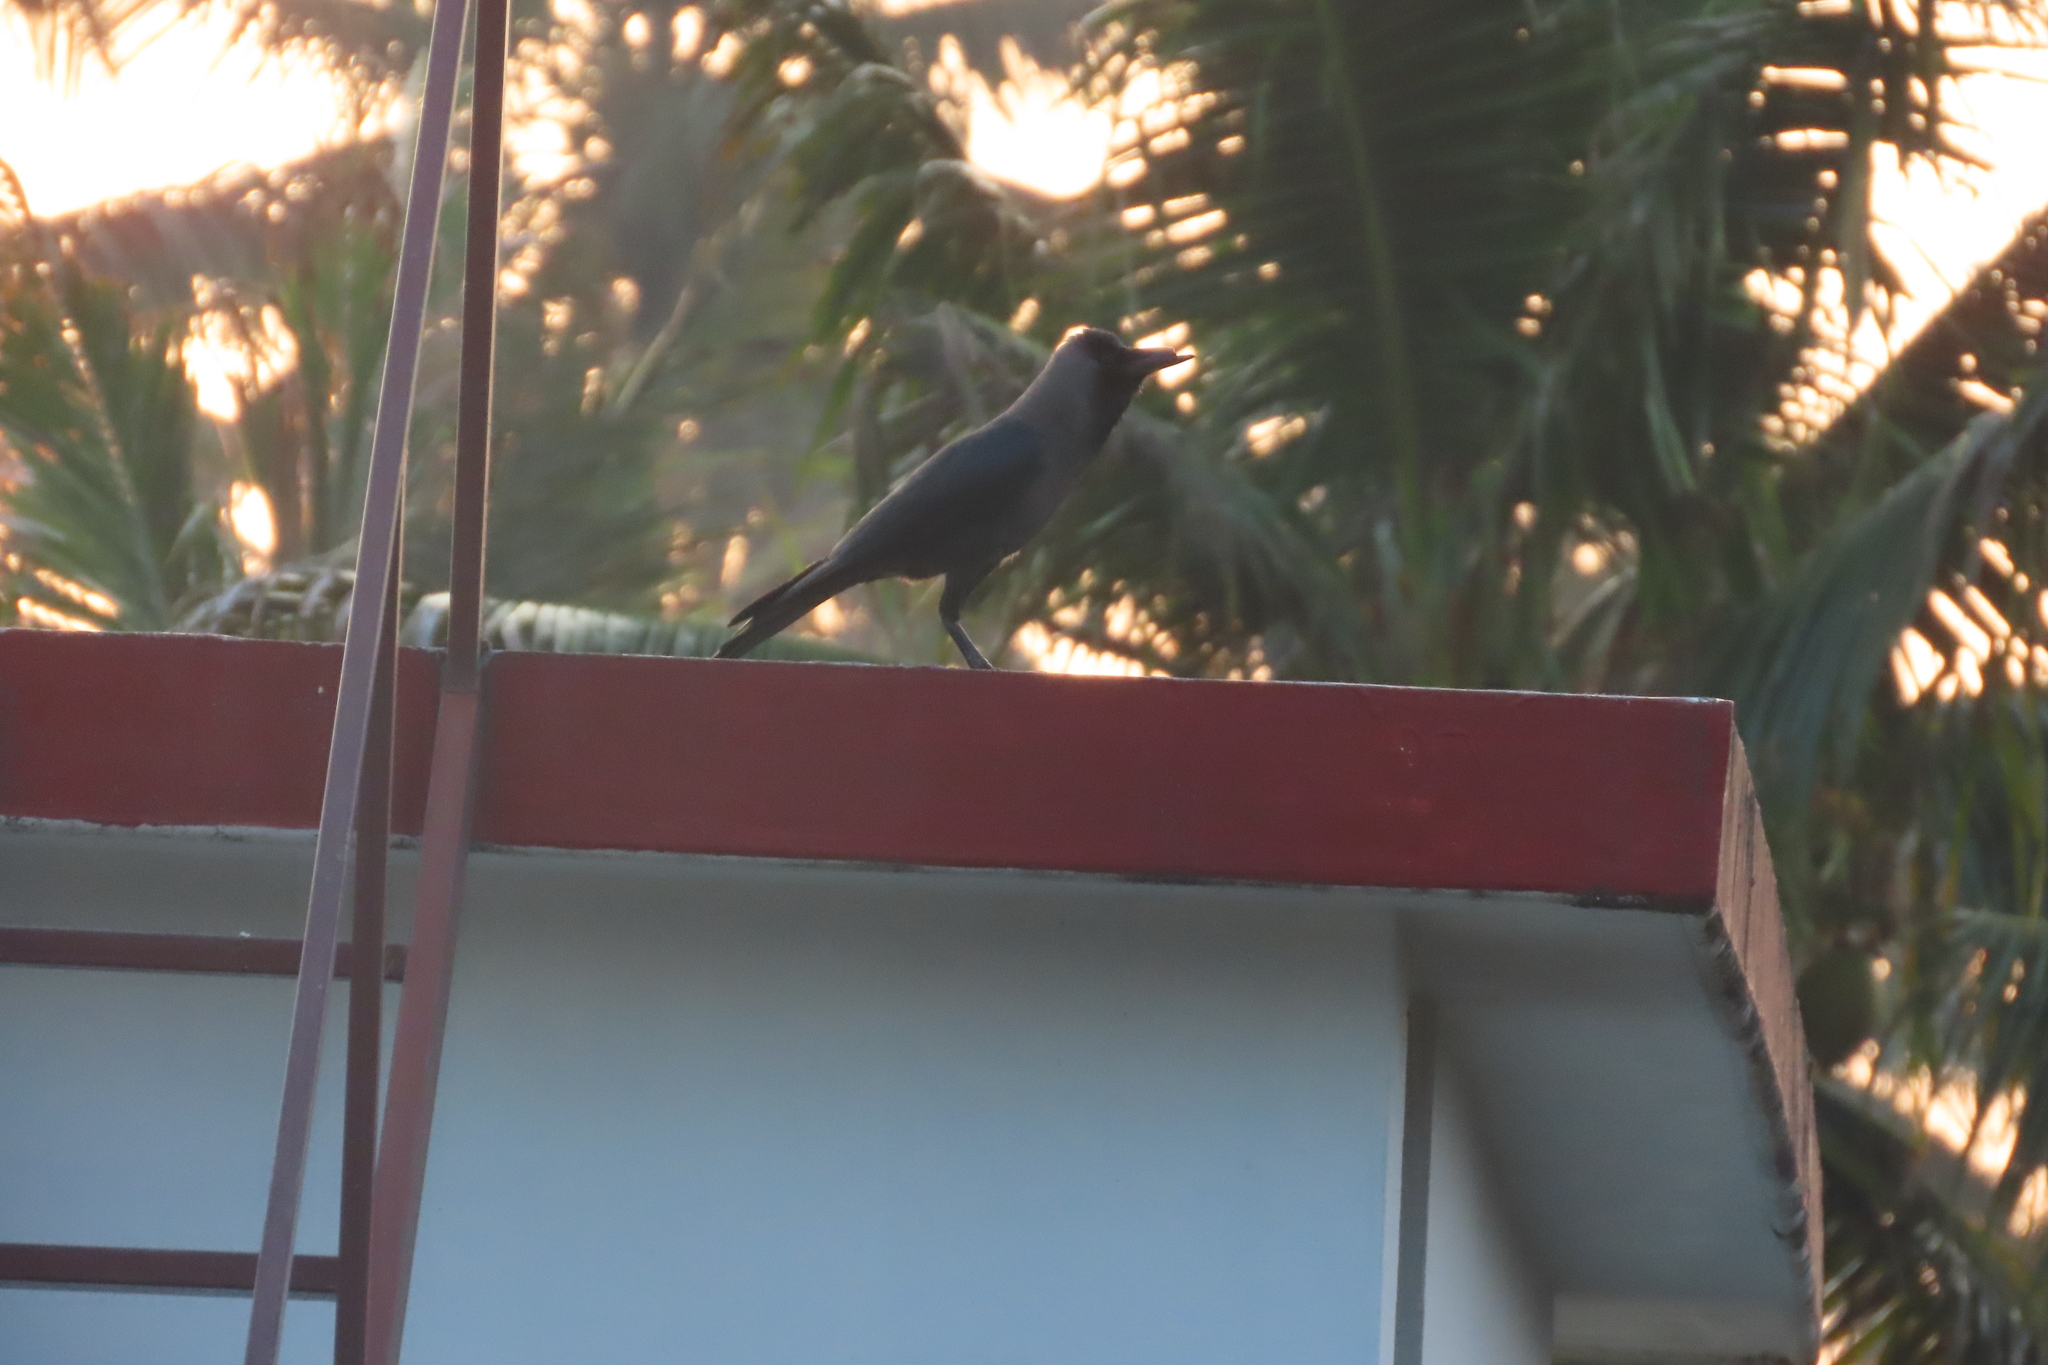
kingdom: Animalia
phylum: Chordata
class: Aves
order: Passeriformes
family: Corvidae
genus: Corvus
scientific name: Corvus splendens
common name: House crow
